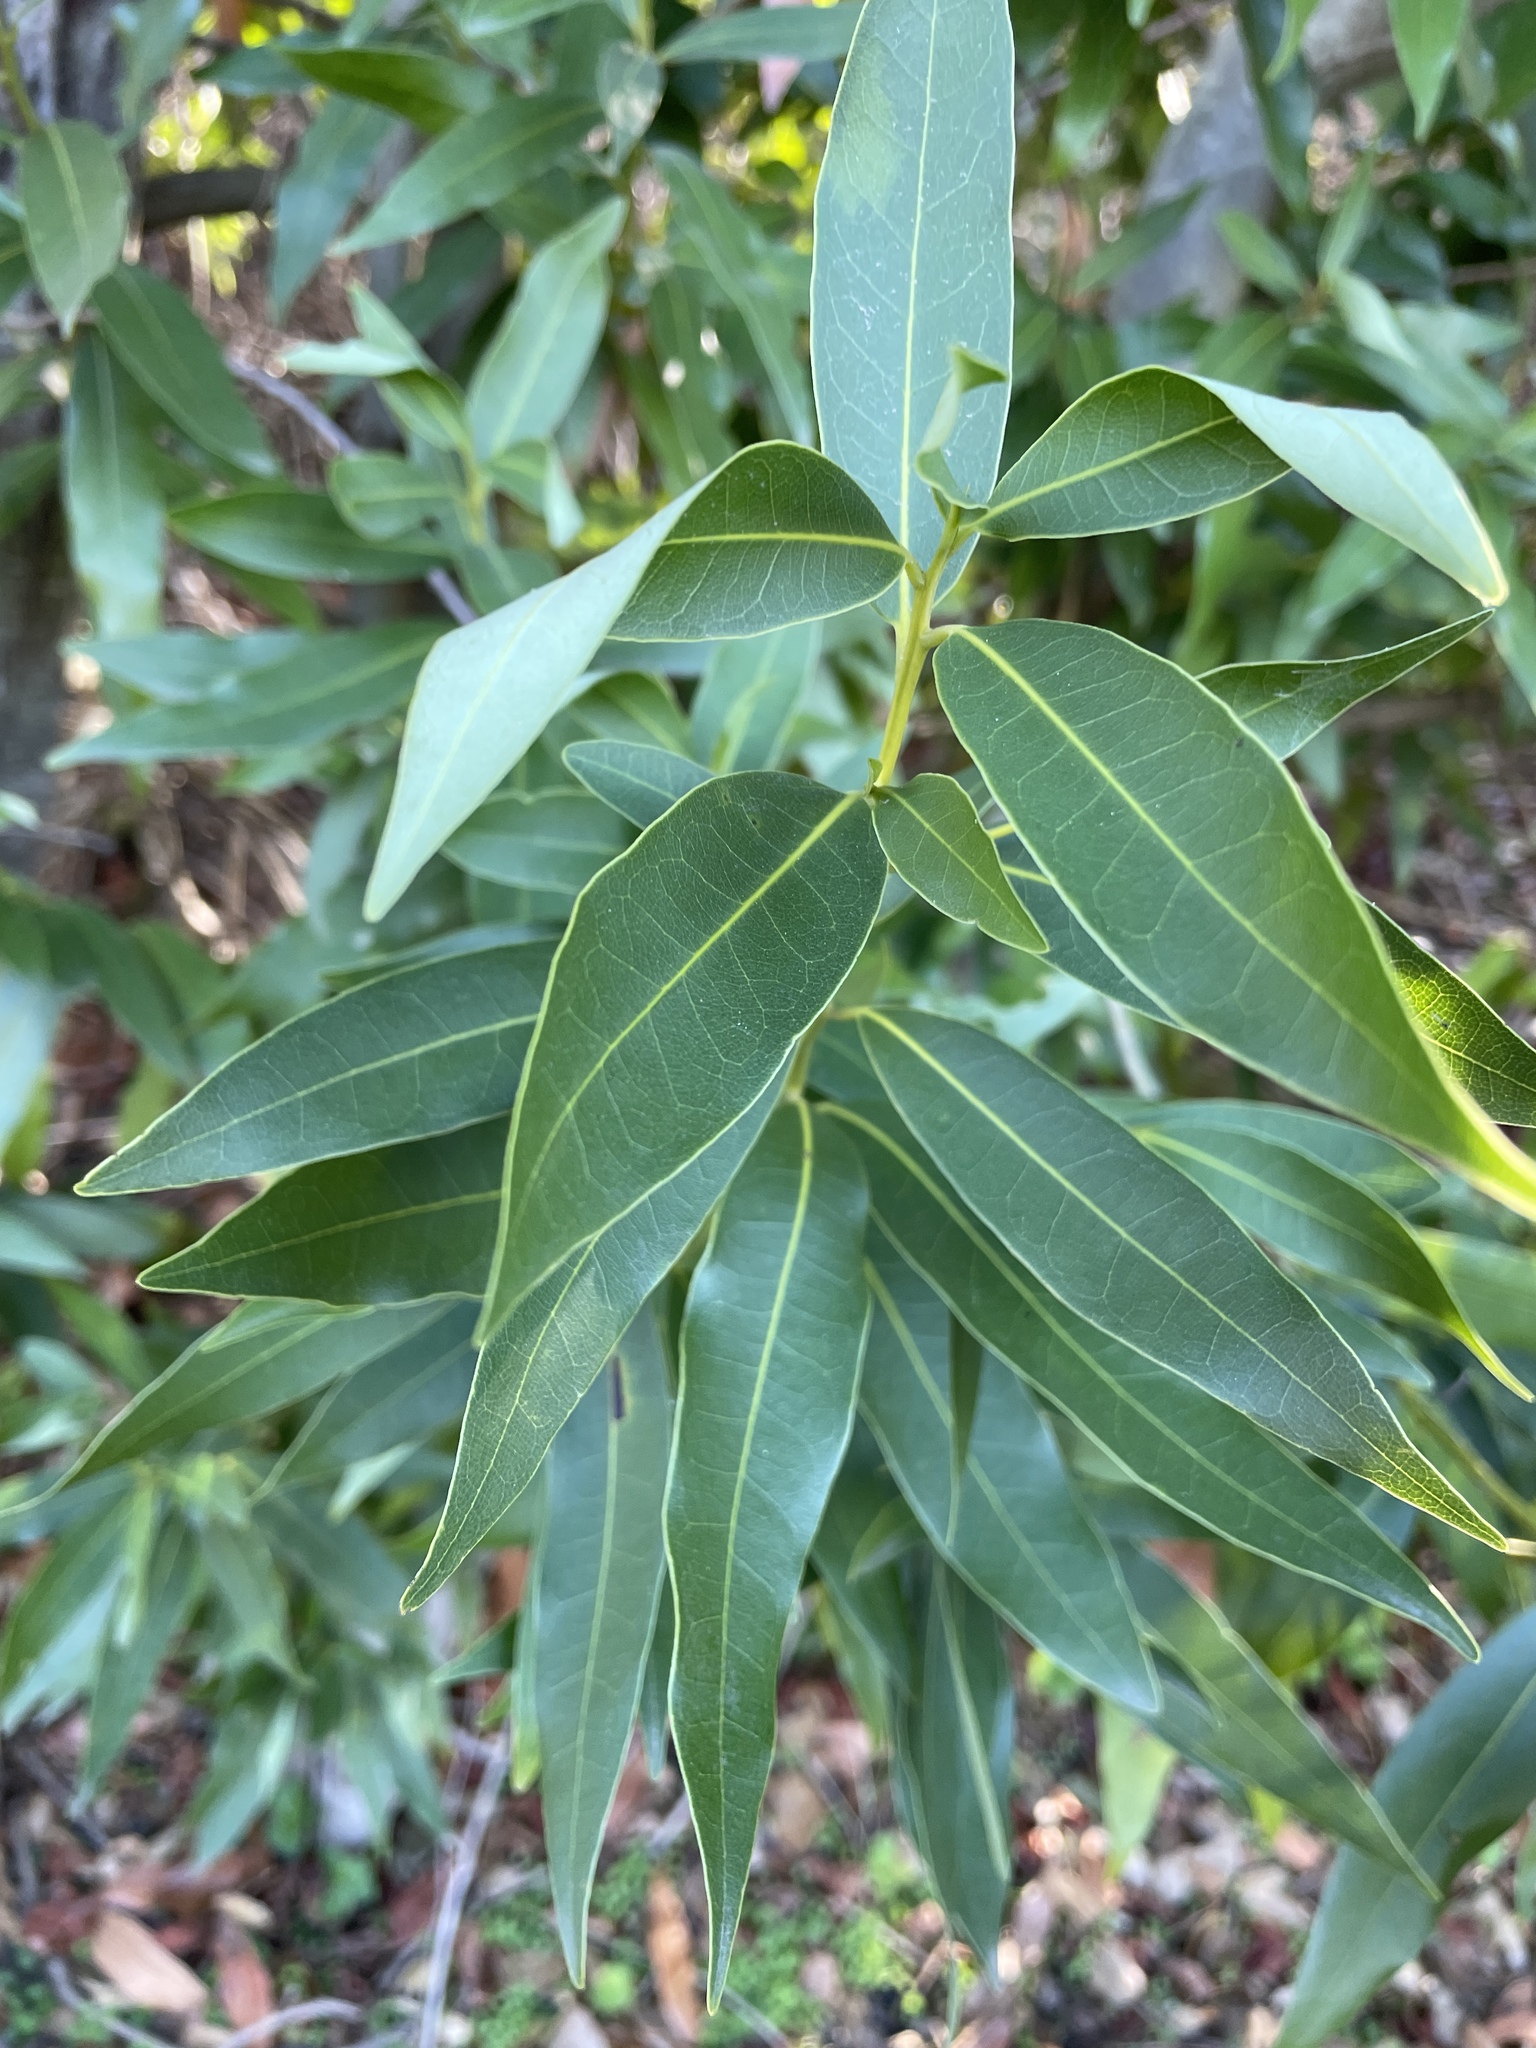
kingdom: Plantae
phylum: Tracheophyta
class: Magnoliopsida
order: Laurales
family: Lauraceae
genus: Umbellularia
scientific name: Umbellularia californica
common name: California bay
